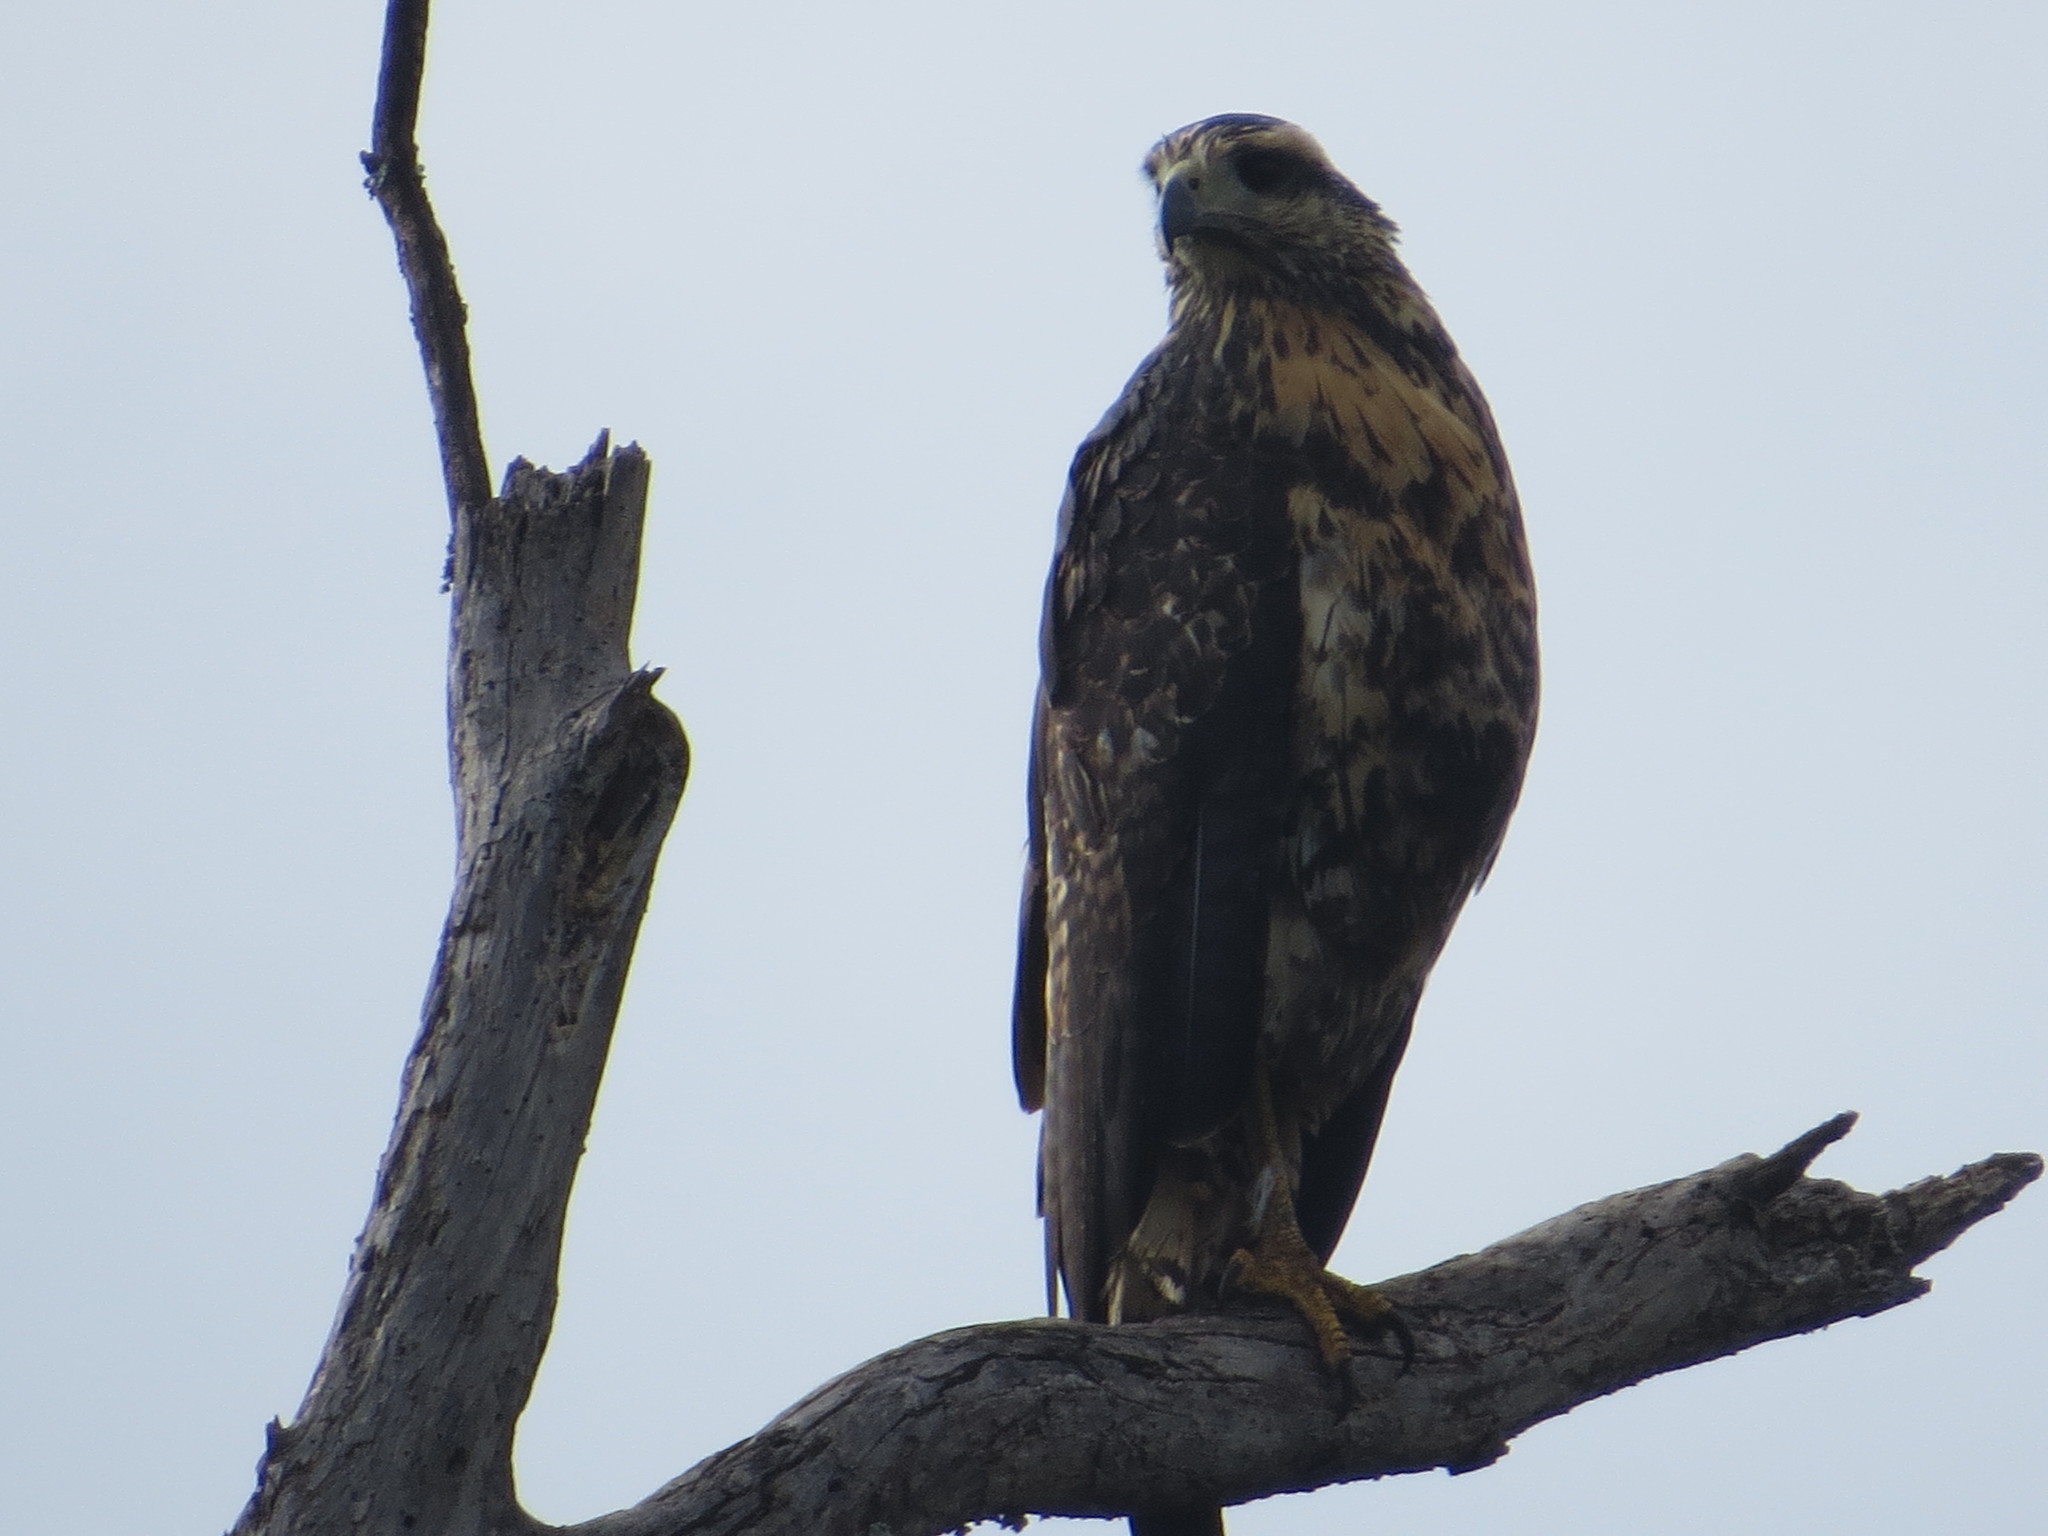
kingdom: Animalia
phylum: Chordata
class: Aves
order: Accipitriformes
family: Accipitridae
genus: Geranoaetus
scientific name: Geranoaetus melanoleucus
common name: Black-chested buzzard-eagle
